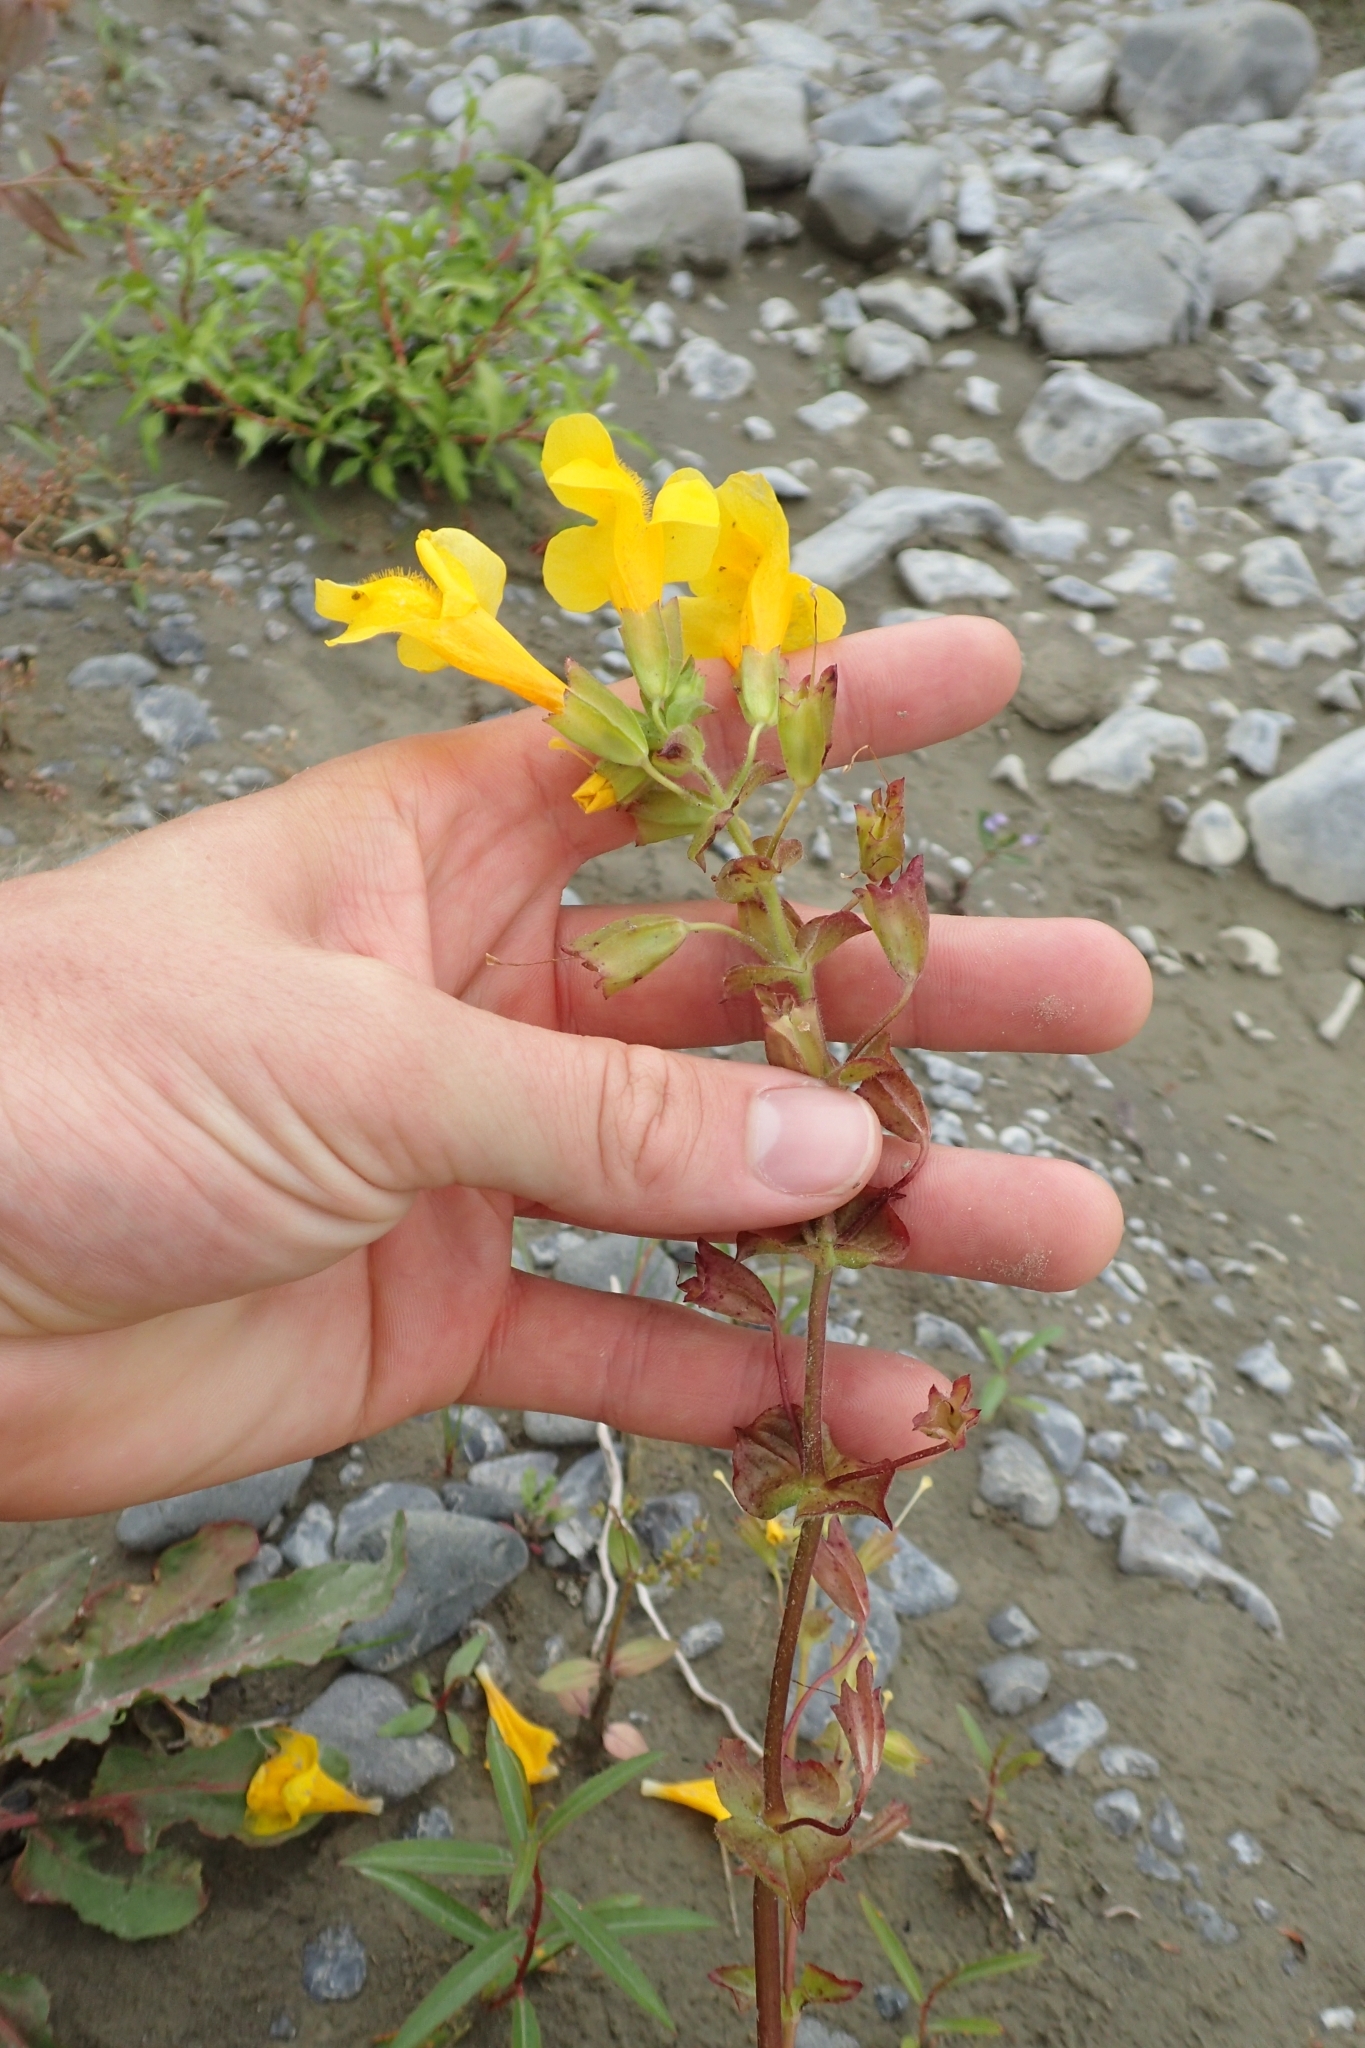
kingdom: Plantae
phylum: Tracheophyta
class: Magnoliopsida
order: Lamiales
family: Phrymaceae
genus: Erythranthe
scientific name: Erythranthe guttata
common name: Monkeyflower
